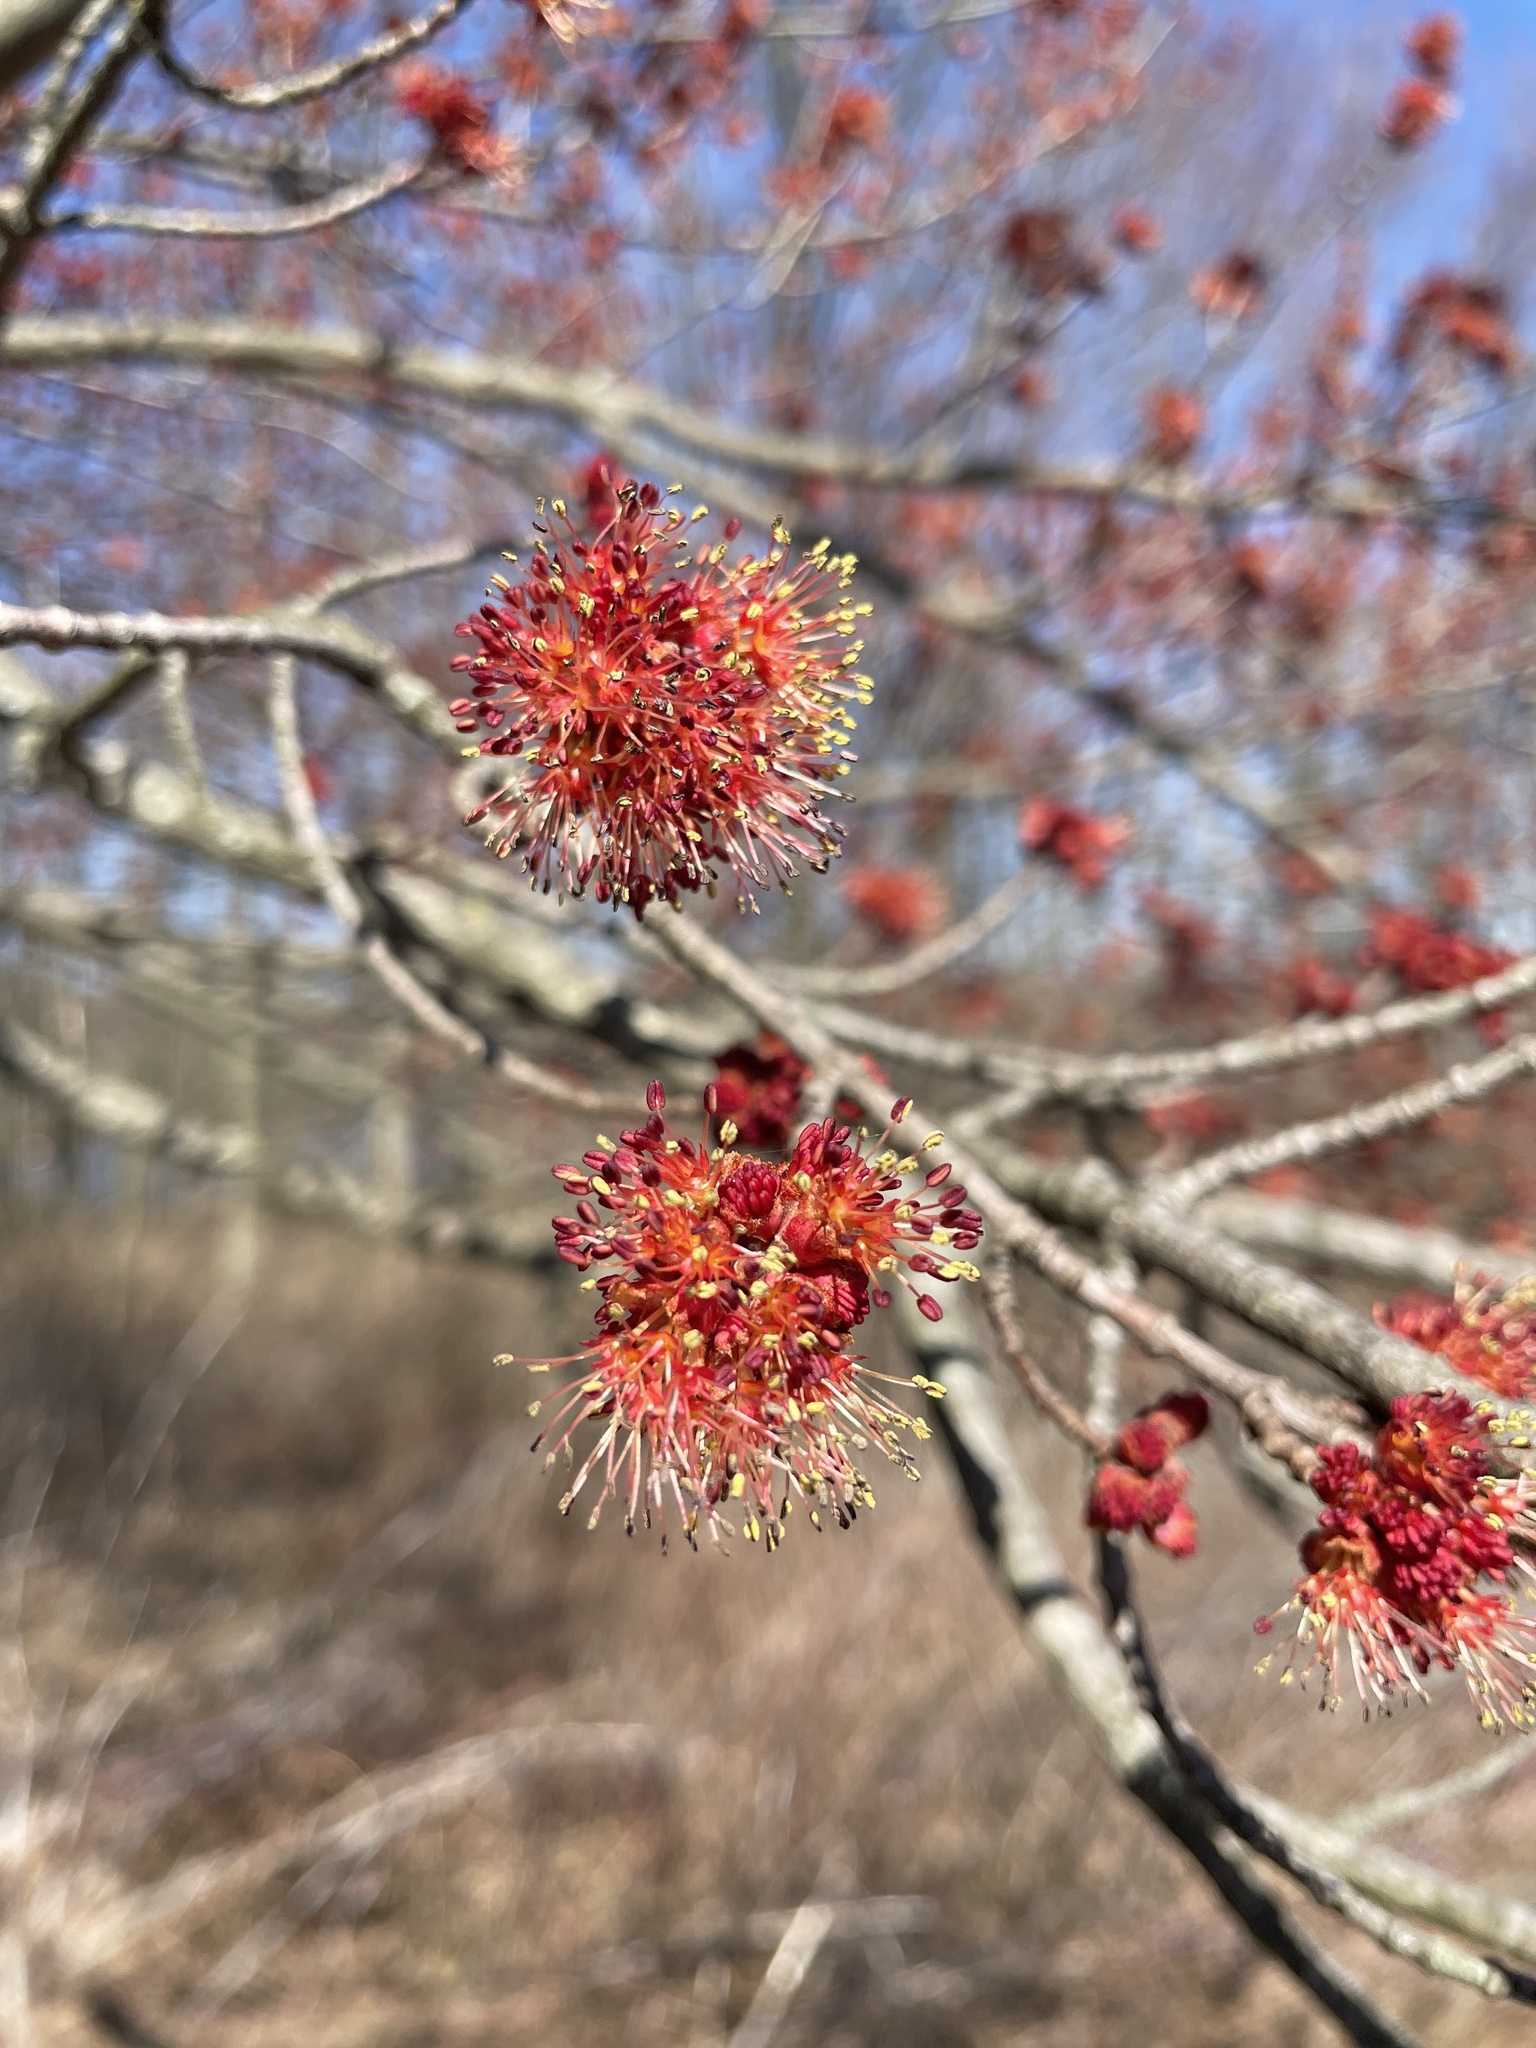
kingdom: Plantae
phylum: Tracheophyta
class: Magnoliopsida
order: Sapindales
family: Sapindaceae
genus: Acer
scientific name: Acer rubrum
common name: Red maple
